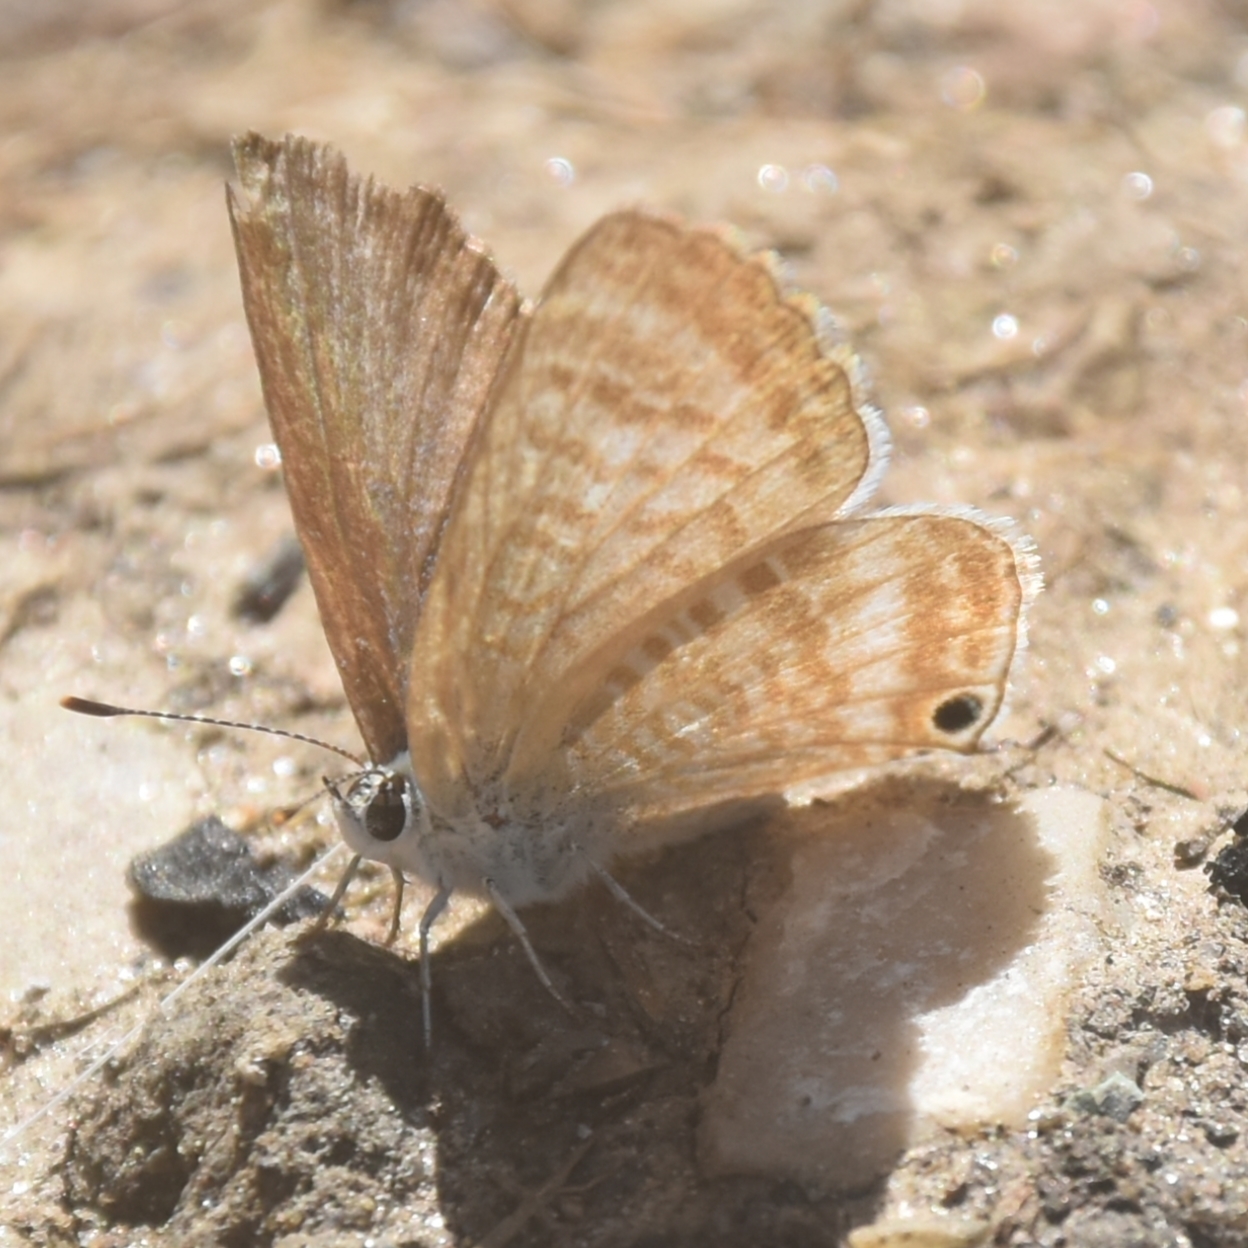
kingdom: Animalia
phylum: Arthropoda
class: Insecta
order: Lepidoptera
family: Lycaenidae
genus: Lampides
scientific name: Lampides boeticus
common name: Long-tailed blue
